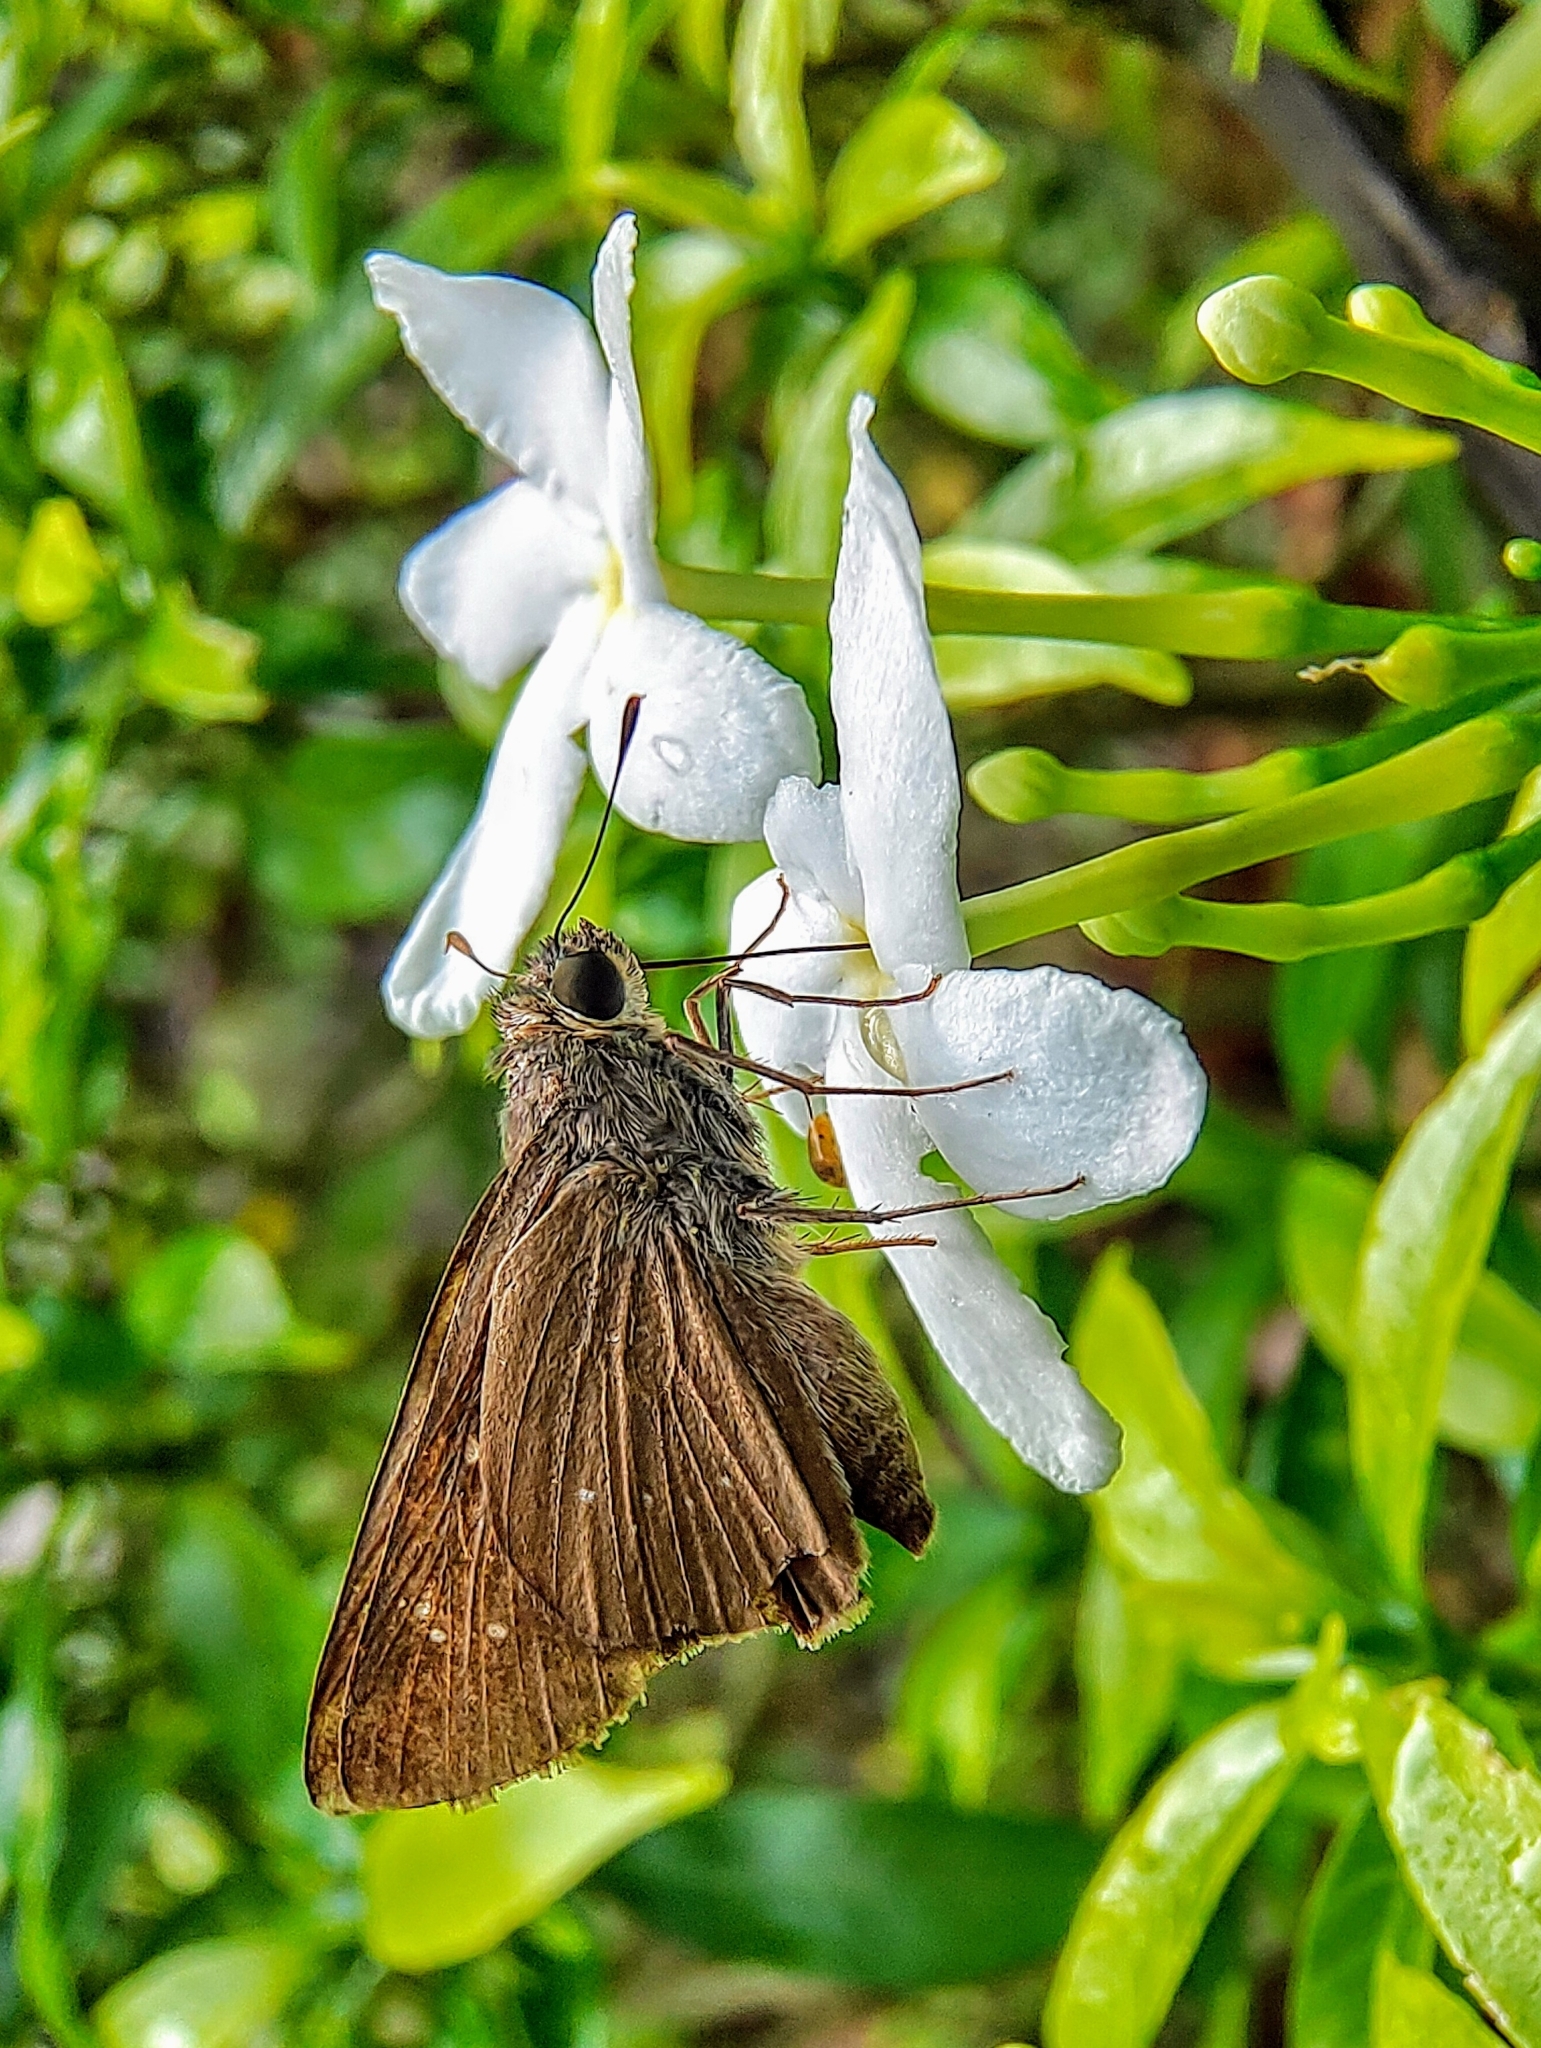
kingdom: Animalia
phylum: Arthropoda
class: Insecta
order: Lepidoptera
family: Hesperiidae
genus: Pelopidas
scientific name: Pelopidas agna
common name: Little branded swift
